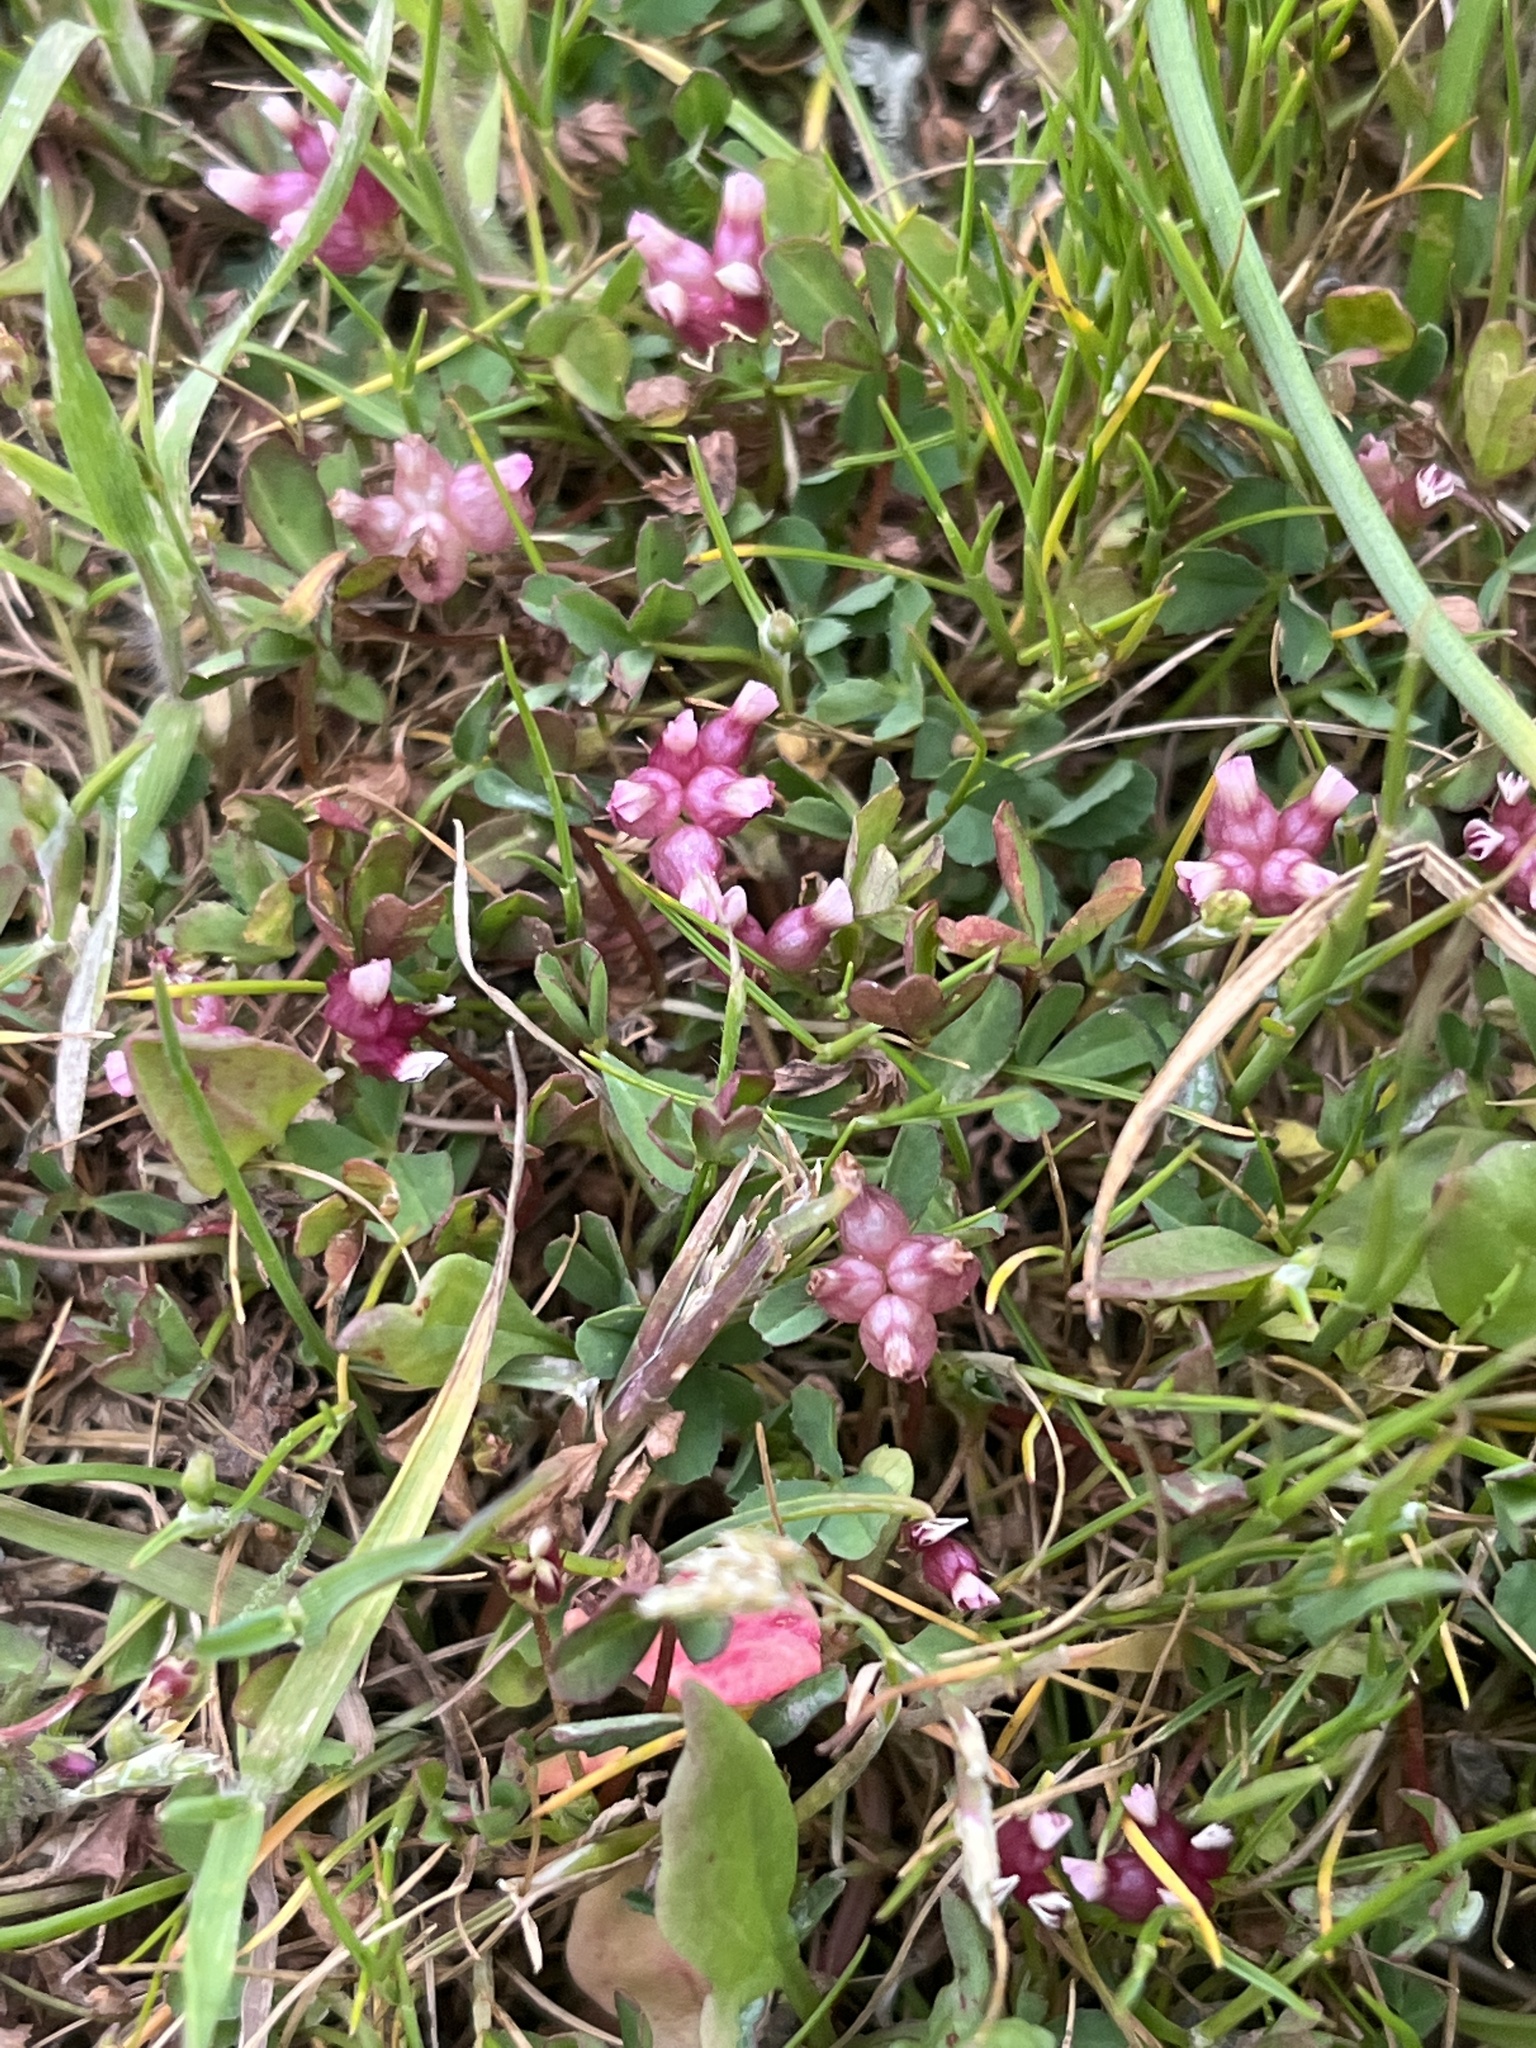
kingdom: Plantae
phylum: Tracheophyta
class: Magnoliopsida
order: Fabales
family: Fabaceae
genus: Trifolium
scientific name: Trifolium depauperatum
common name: Poverty clover
